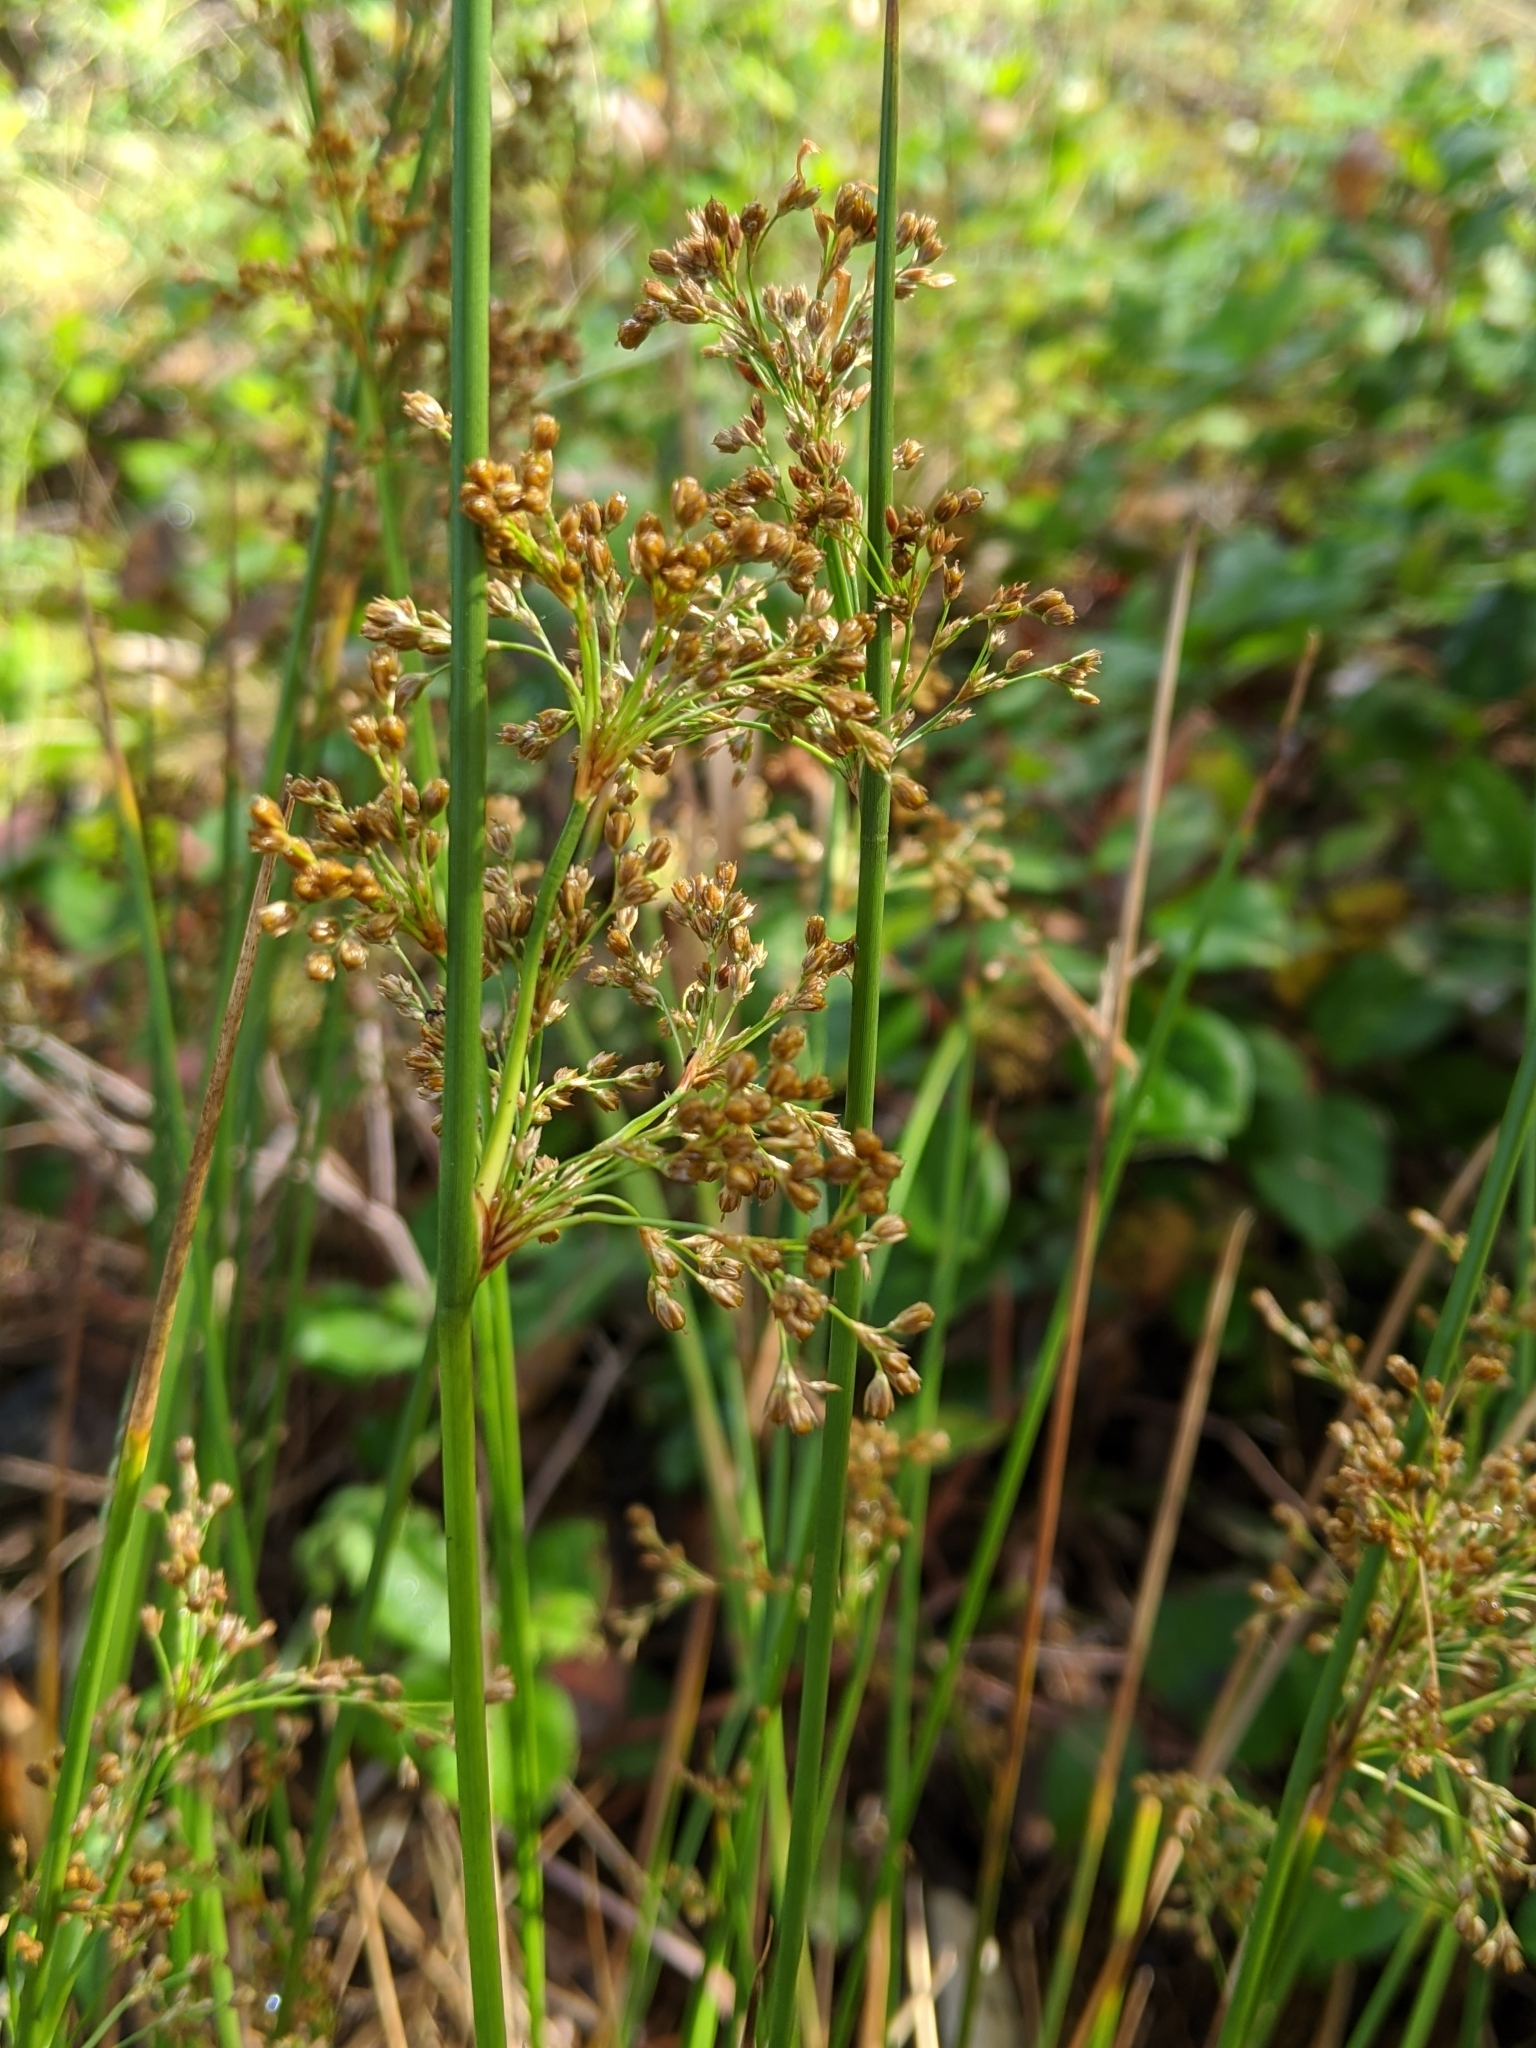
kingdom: Plantae
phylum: Tracheophyta
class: Liliopsida
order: Poales
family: Juncaceae
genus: Juncus
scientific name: Juncus effusus
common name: Soft rush
